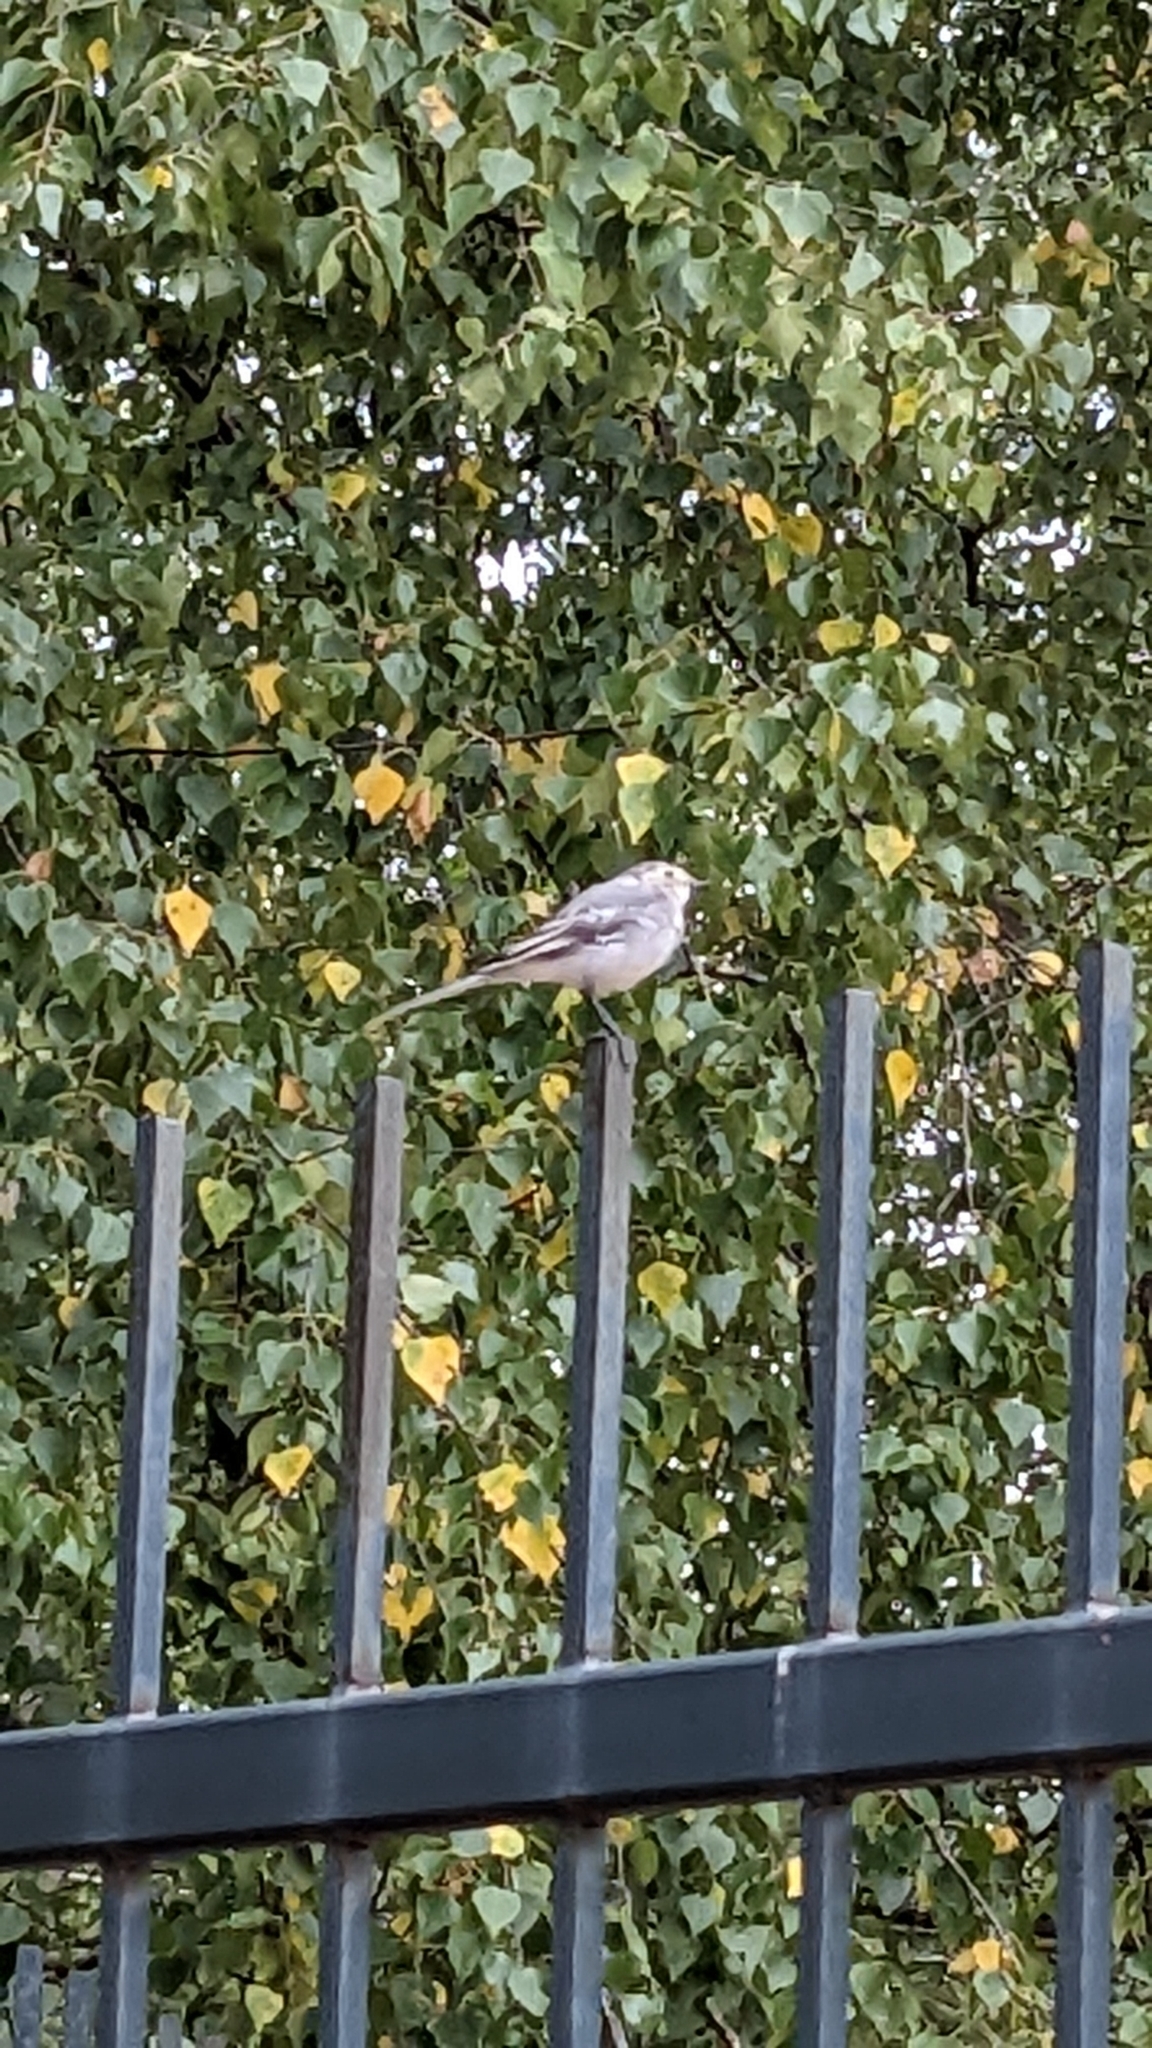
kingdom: Animalia
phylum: Chordata
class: Aves
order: Passeriformes
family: Motacillidae
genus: Motacilla
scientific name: Motacilla alba
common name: White wagtail
